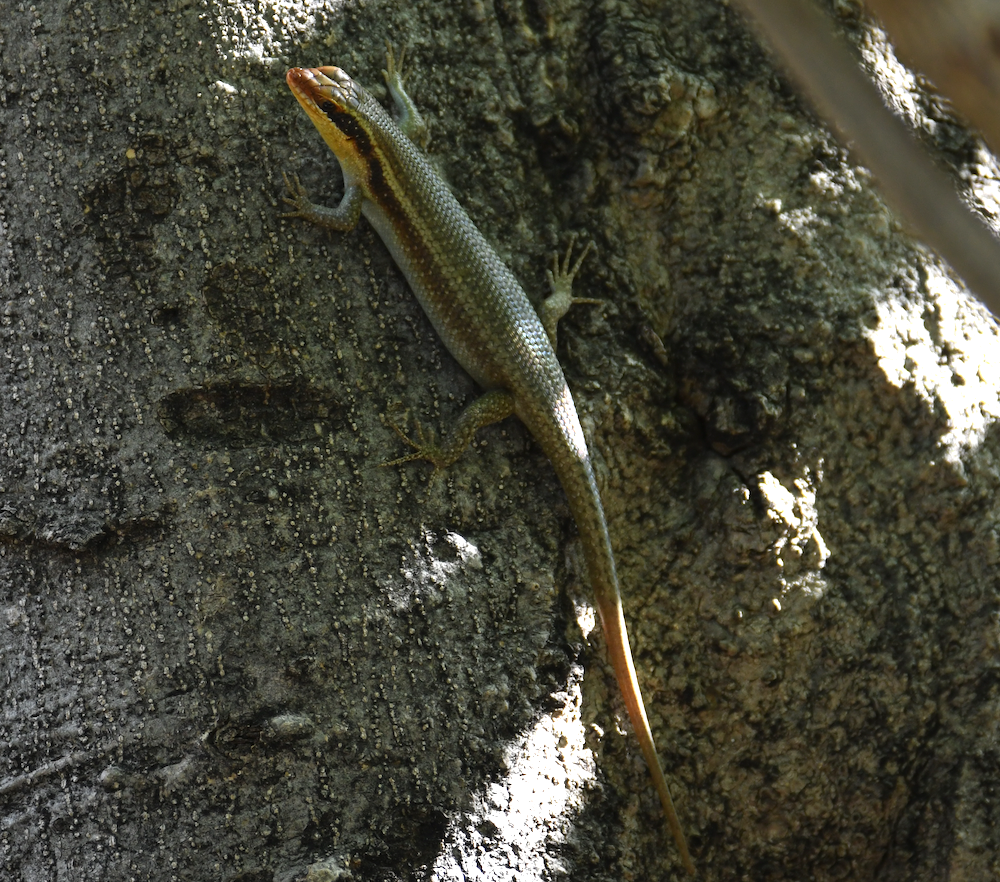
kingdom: Animalia
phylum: Chordata
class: Squamata
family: Scincidae
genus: Trachylepis
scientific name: Trachylepis wahlbergii
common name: Wahlberg’s striped skink
